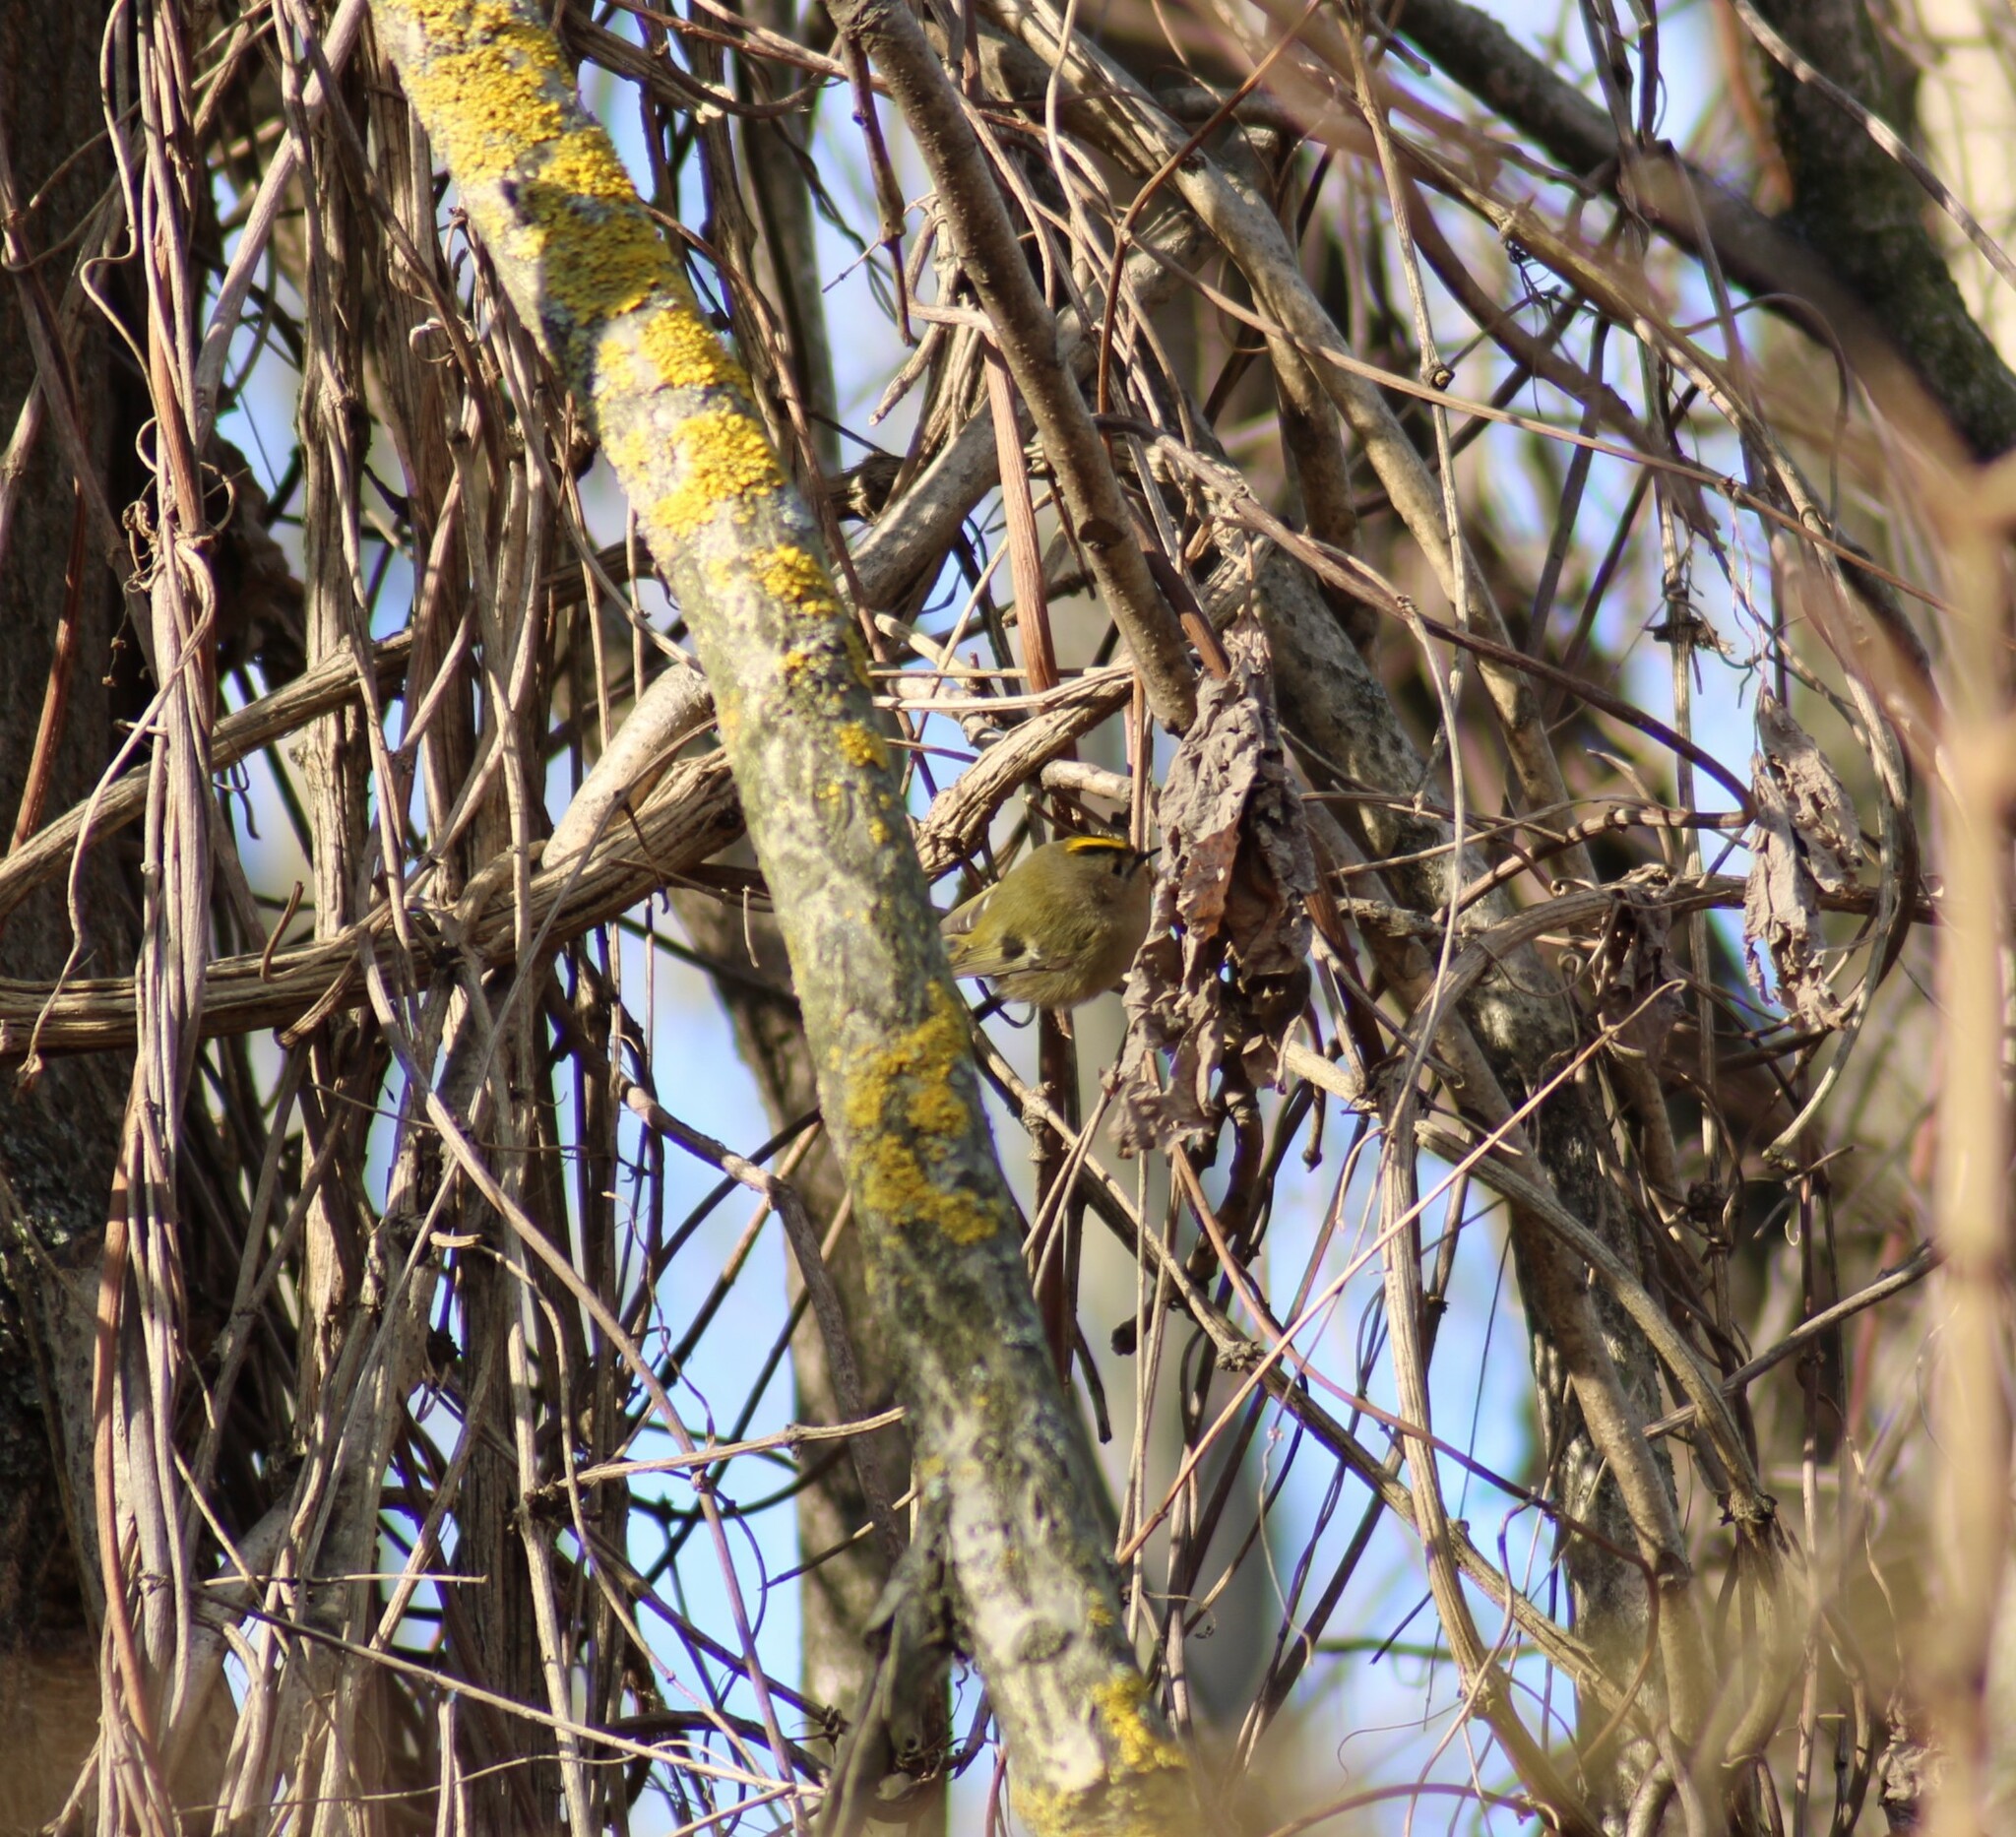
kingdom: Animalia
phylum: Chordata
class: Aves
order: Passeriformes
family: Regulidae
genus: Regulus
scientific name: Regulus regulus
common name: Goldcrest
